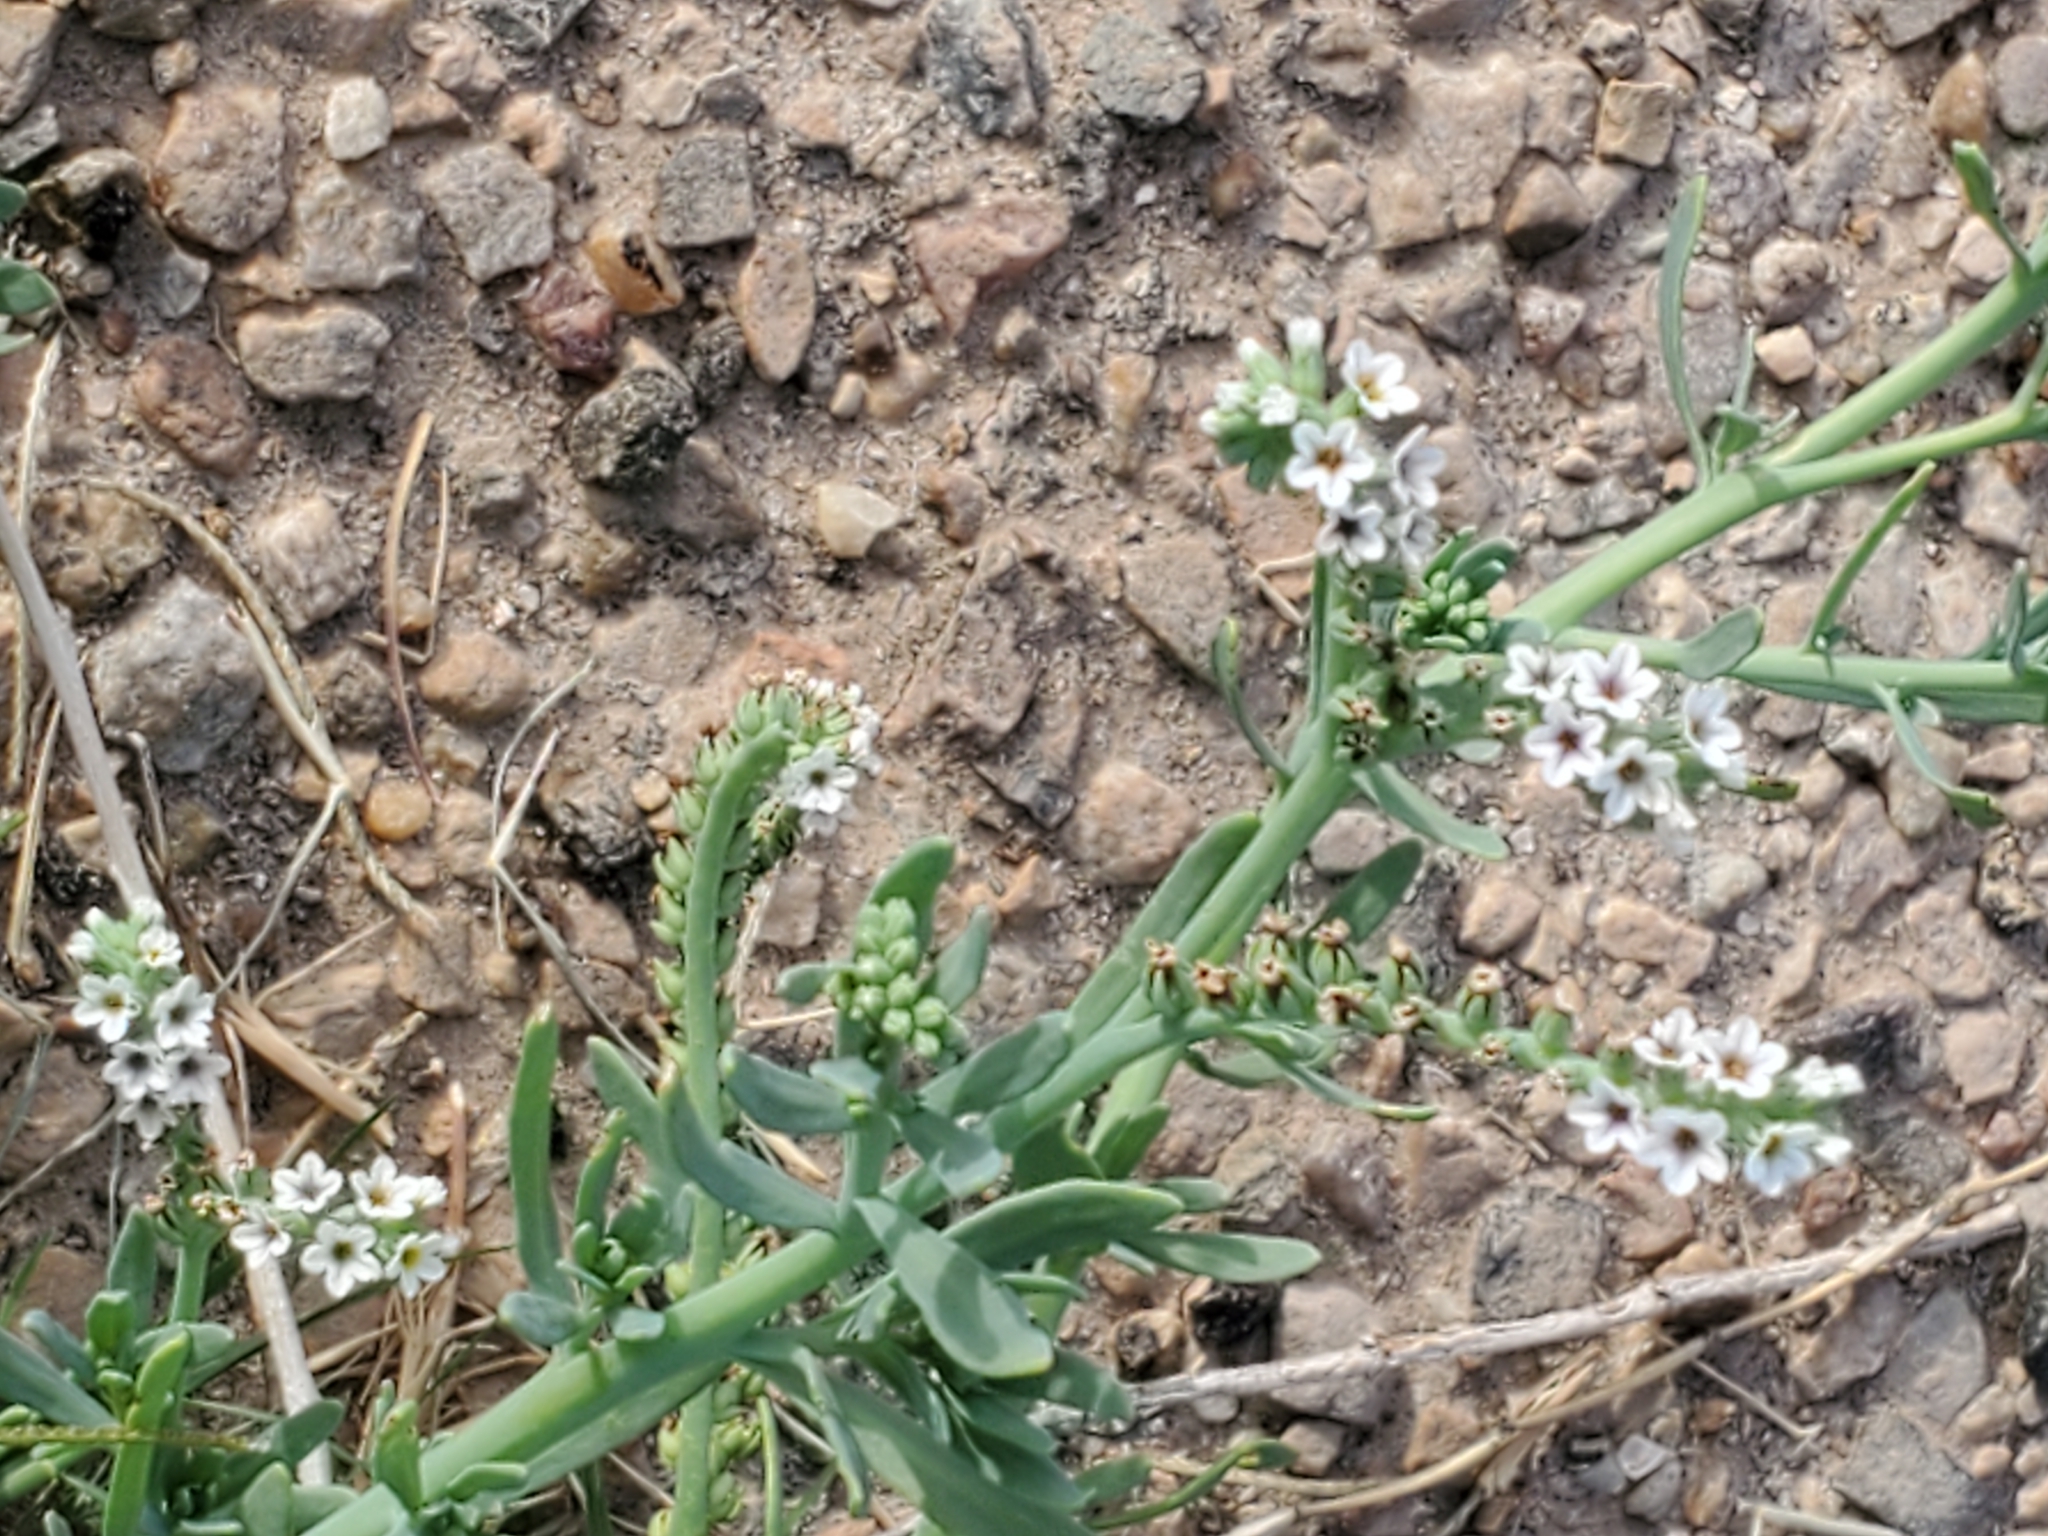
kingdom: Plantae
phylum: Tracheophyta
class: Magnoliopsida
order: Boraginales
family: Heliotropiaceae
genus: Heliotropium
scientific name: Heliotropium curassavicum
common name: Seaside heliotrope
